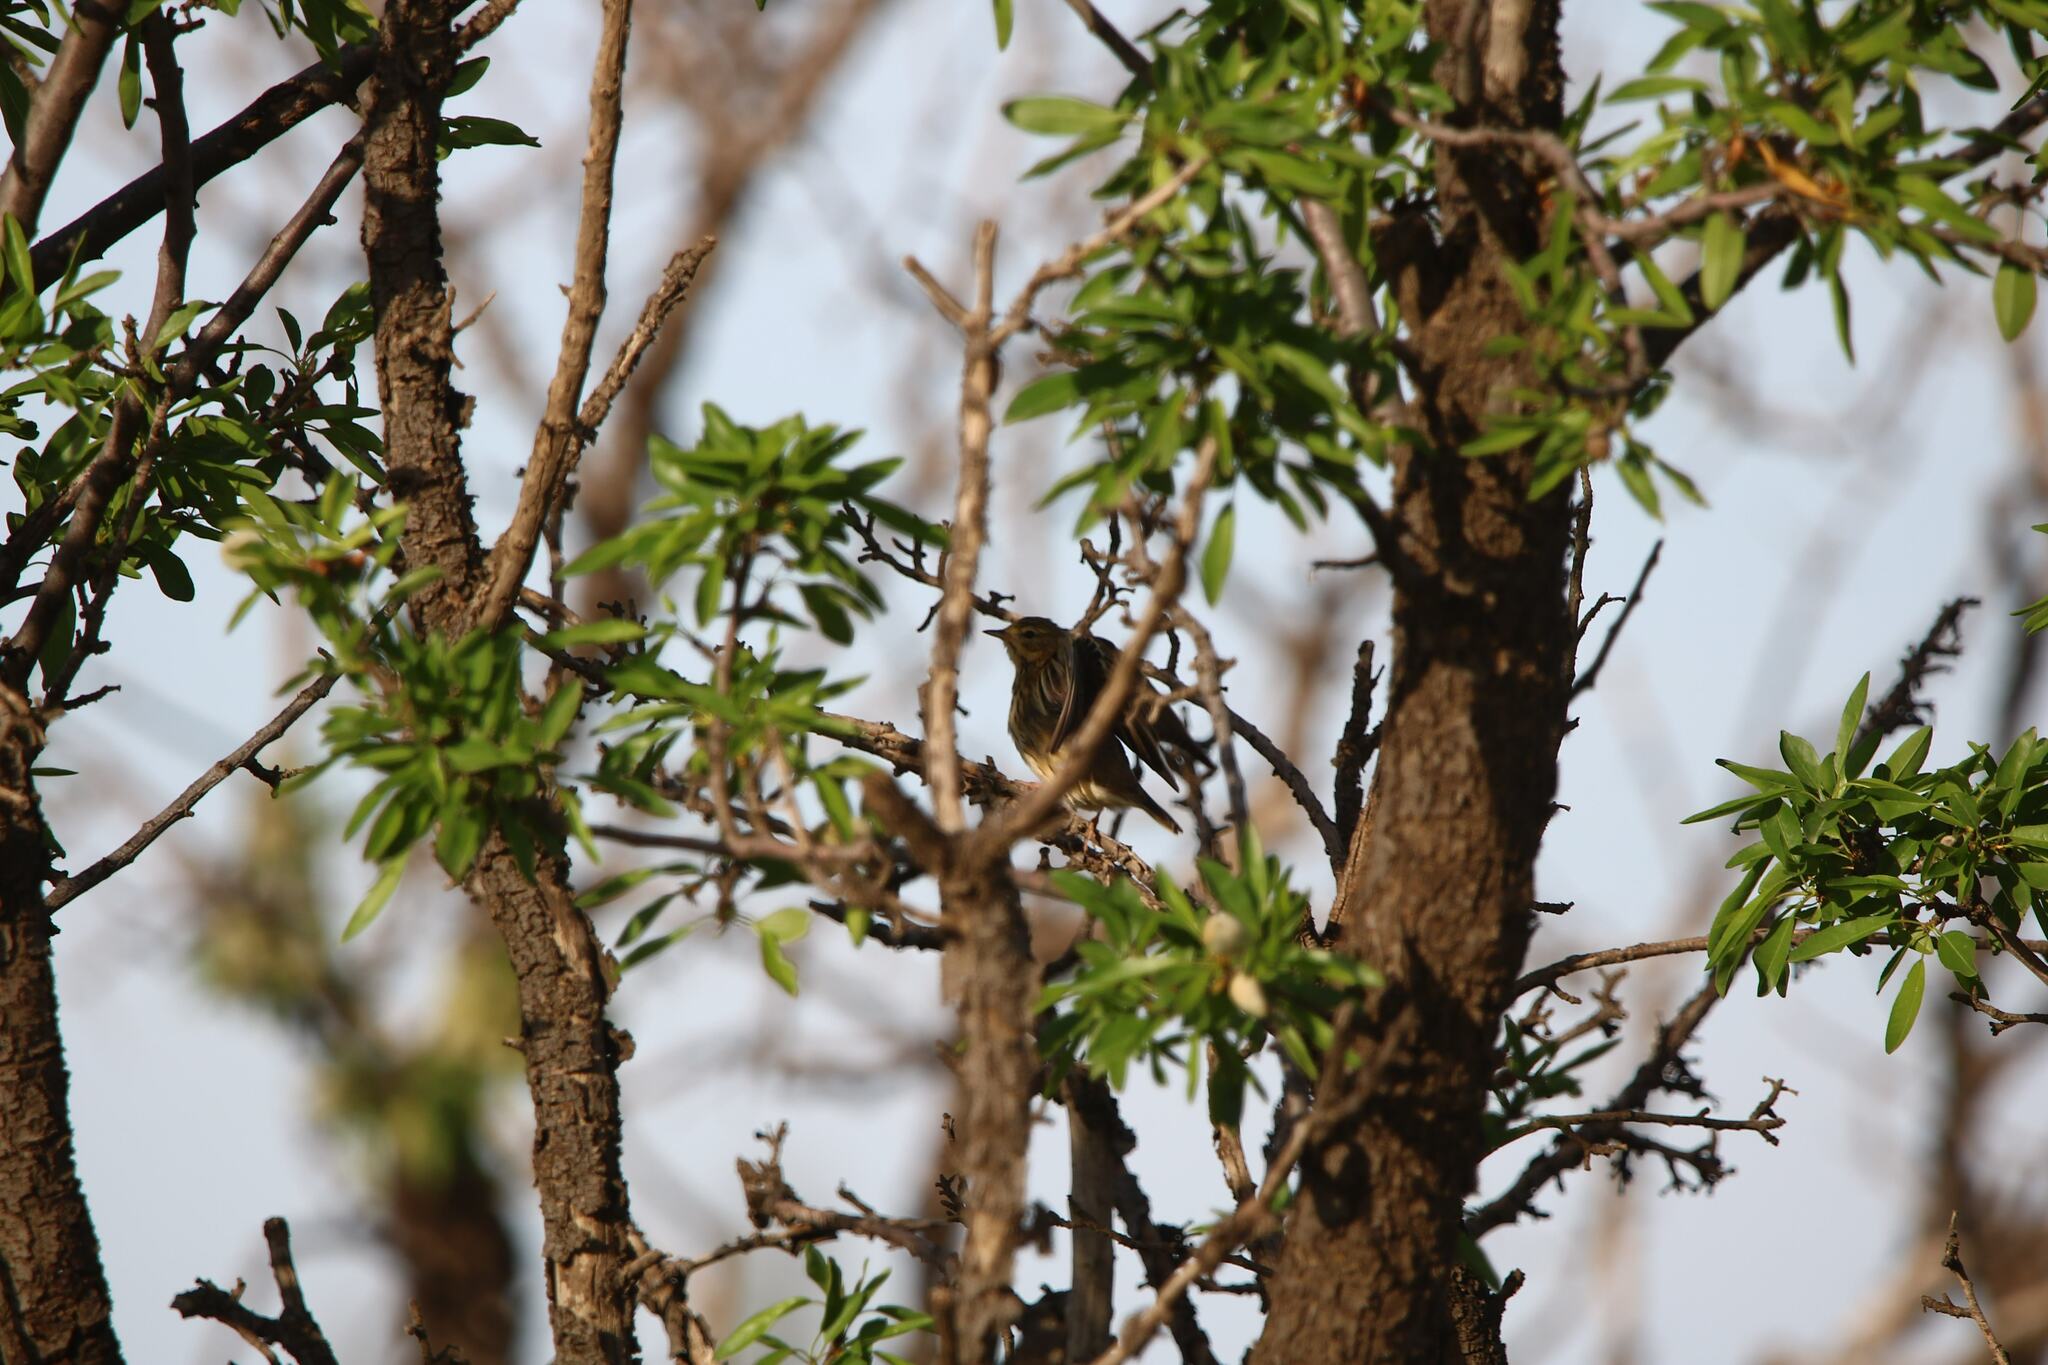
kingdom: Animalia
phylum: Chordata
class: Aves
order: Passeriformes
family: Motacillidae
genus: Anthus
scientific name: Anthus trivialis
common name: Tree pipit
